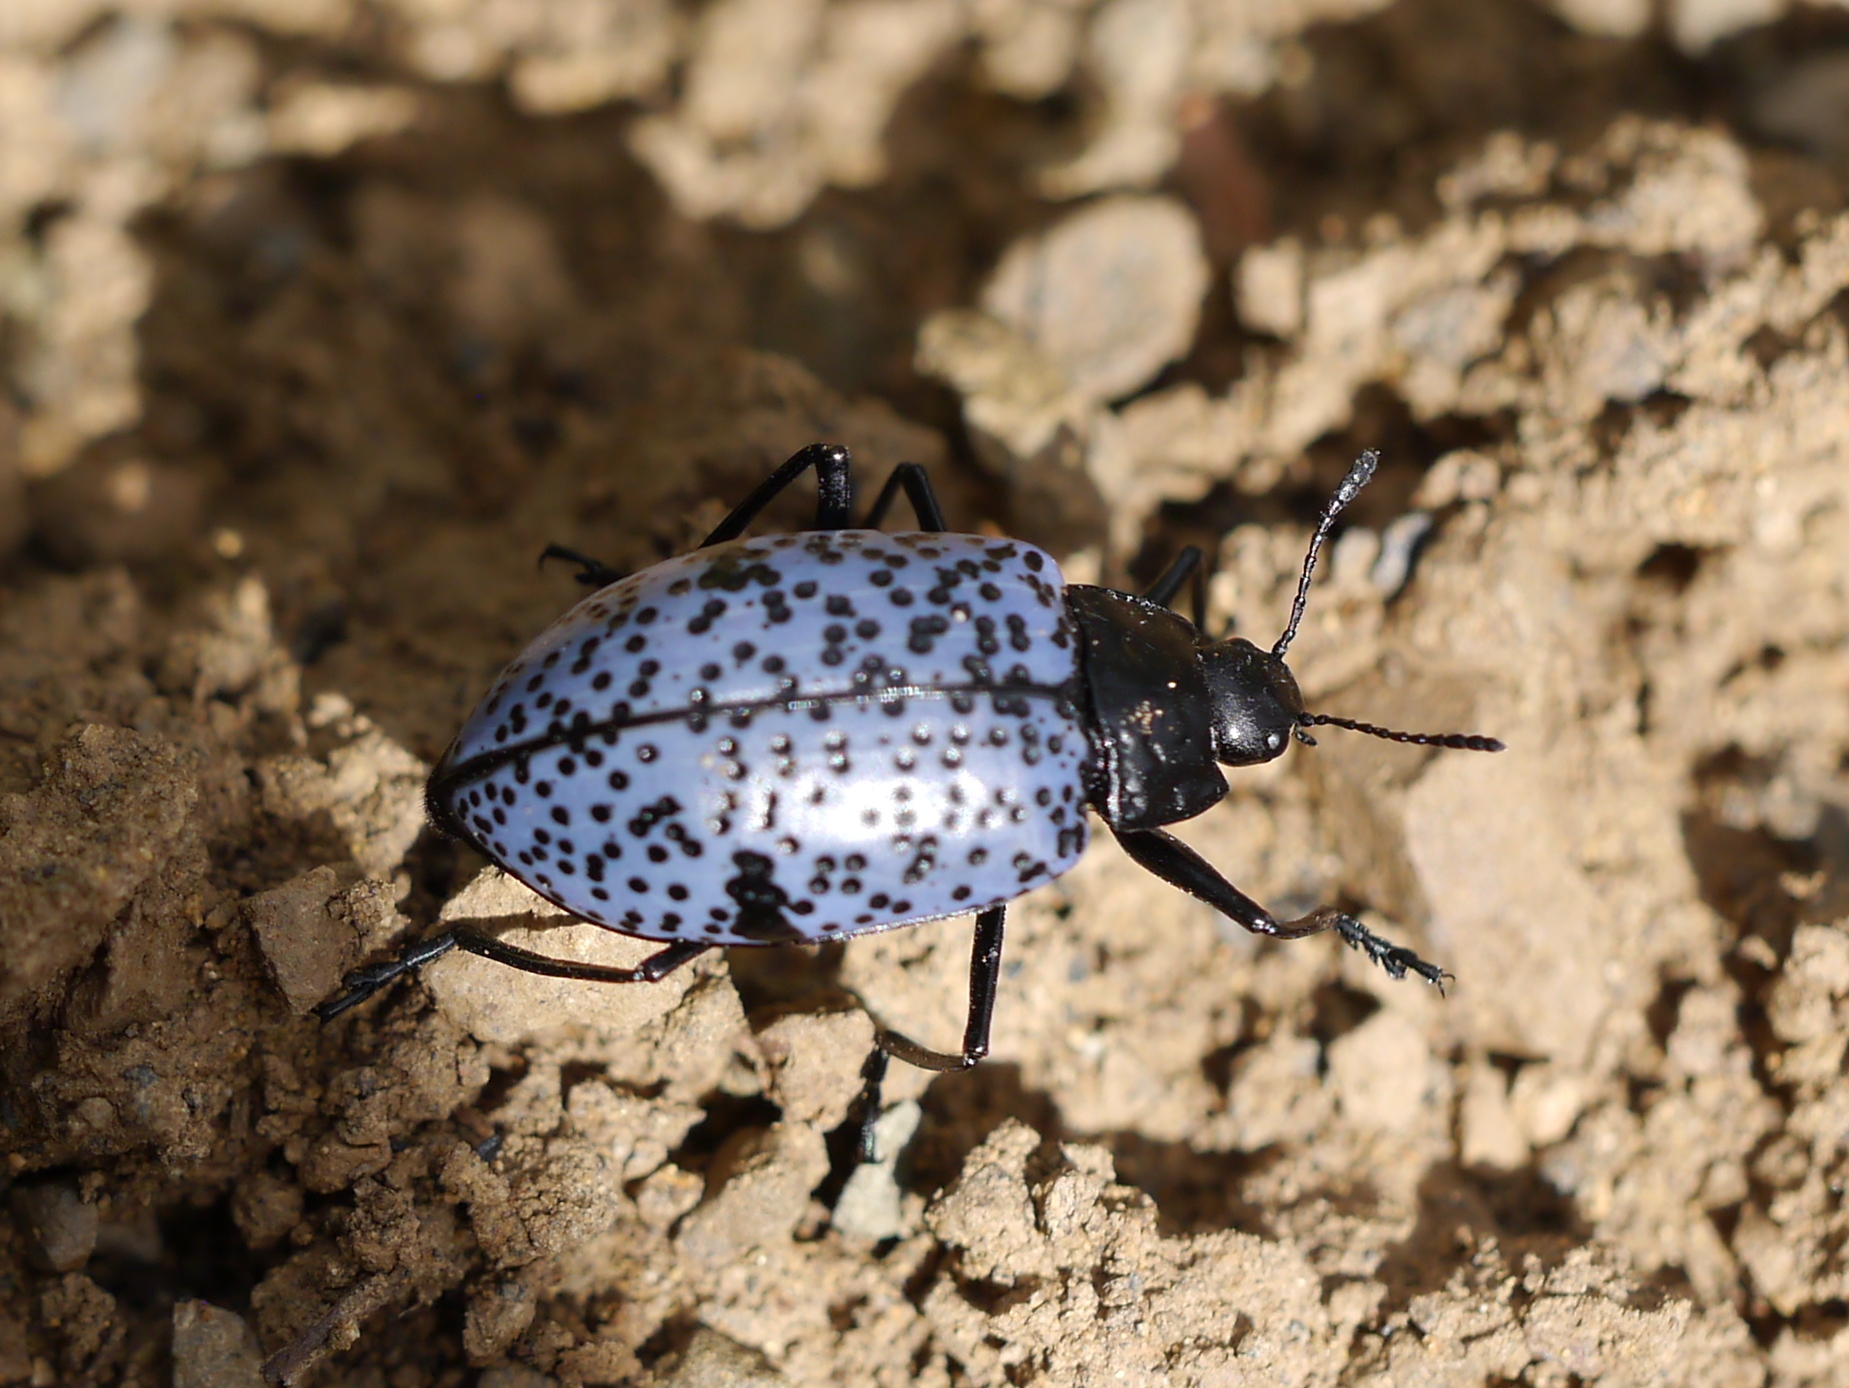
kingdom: Animalia
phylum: Arthropoda
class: Insecta
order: Coleoptera
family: Erotylidae
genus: Gibbifer
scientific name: Gibbifer californicus
